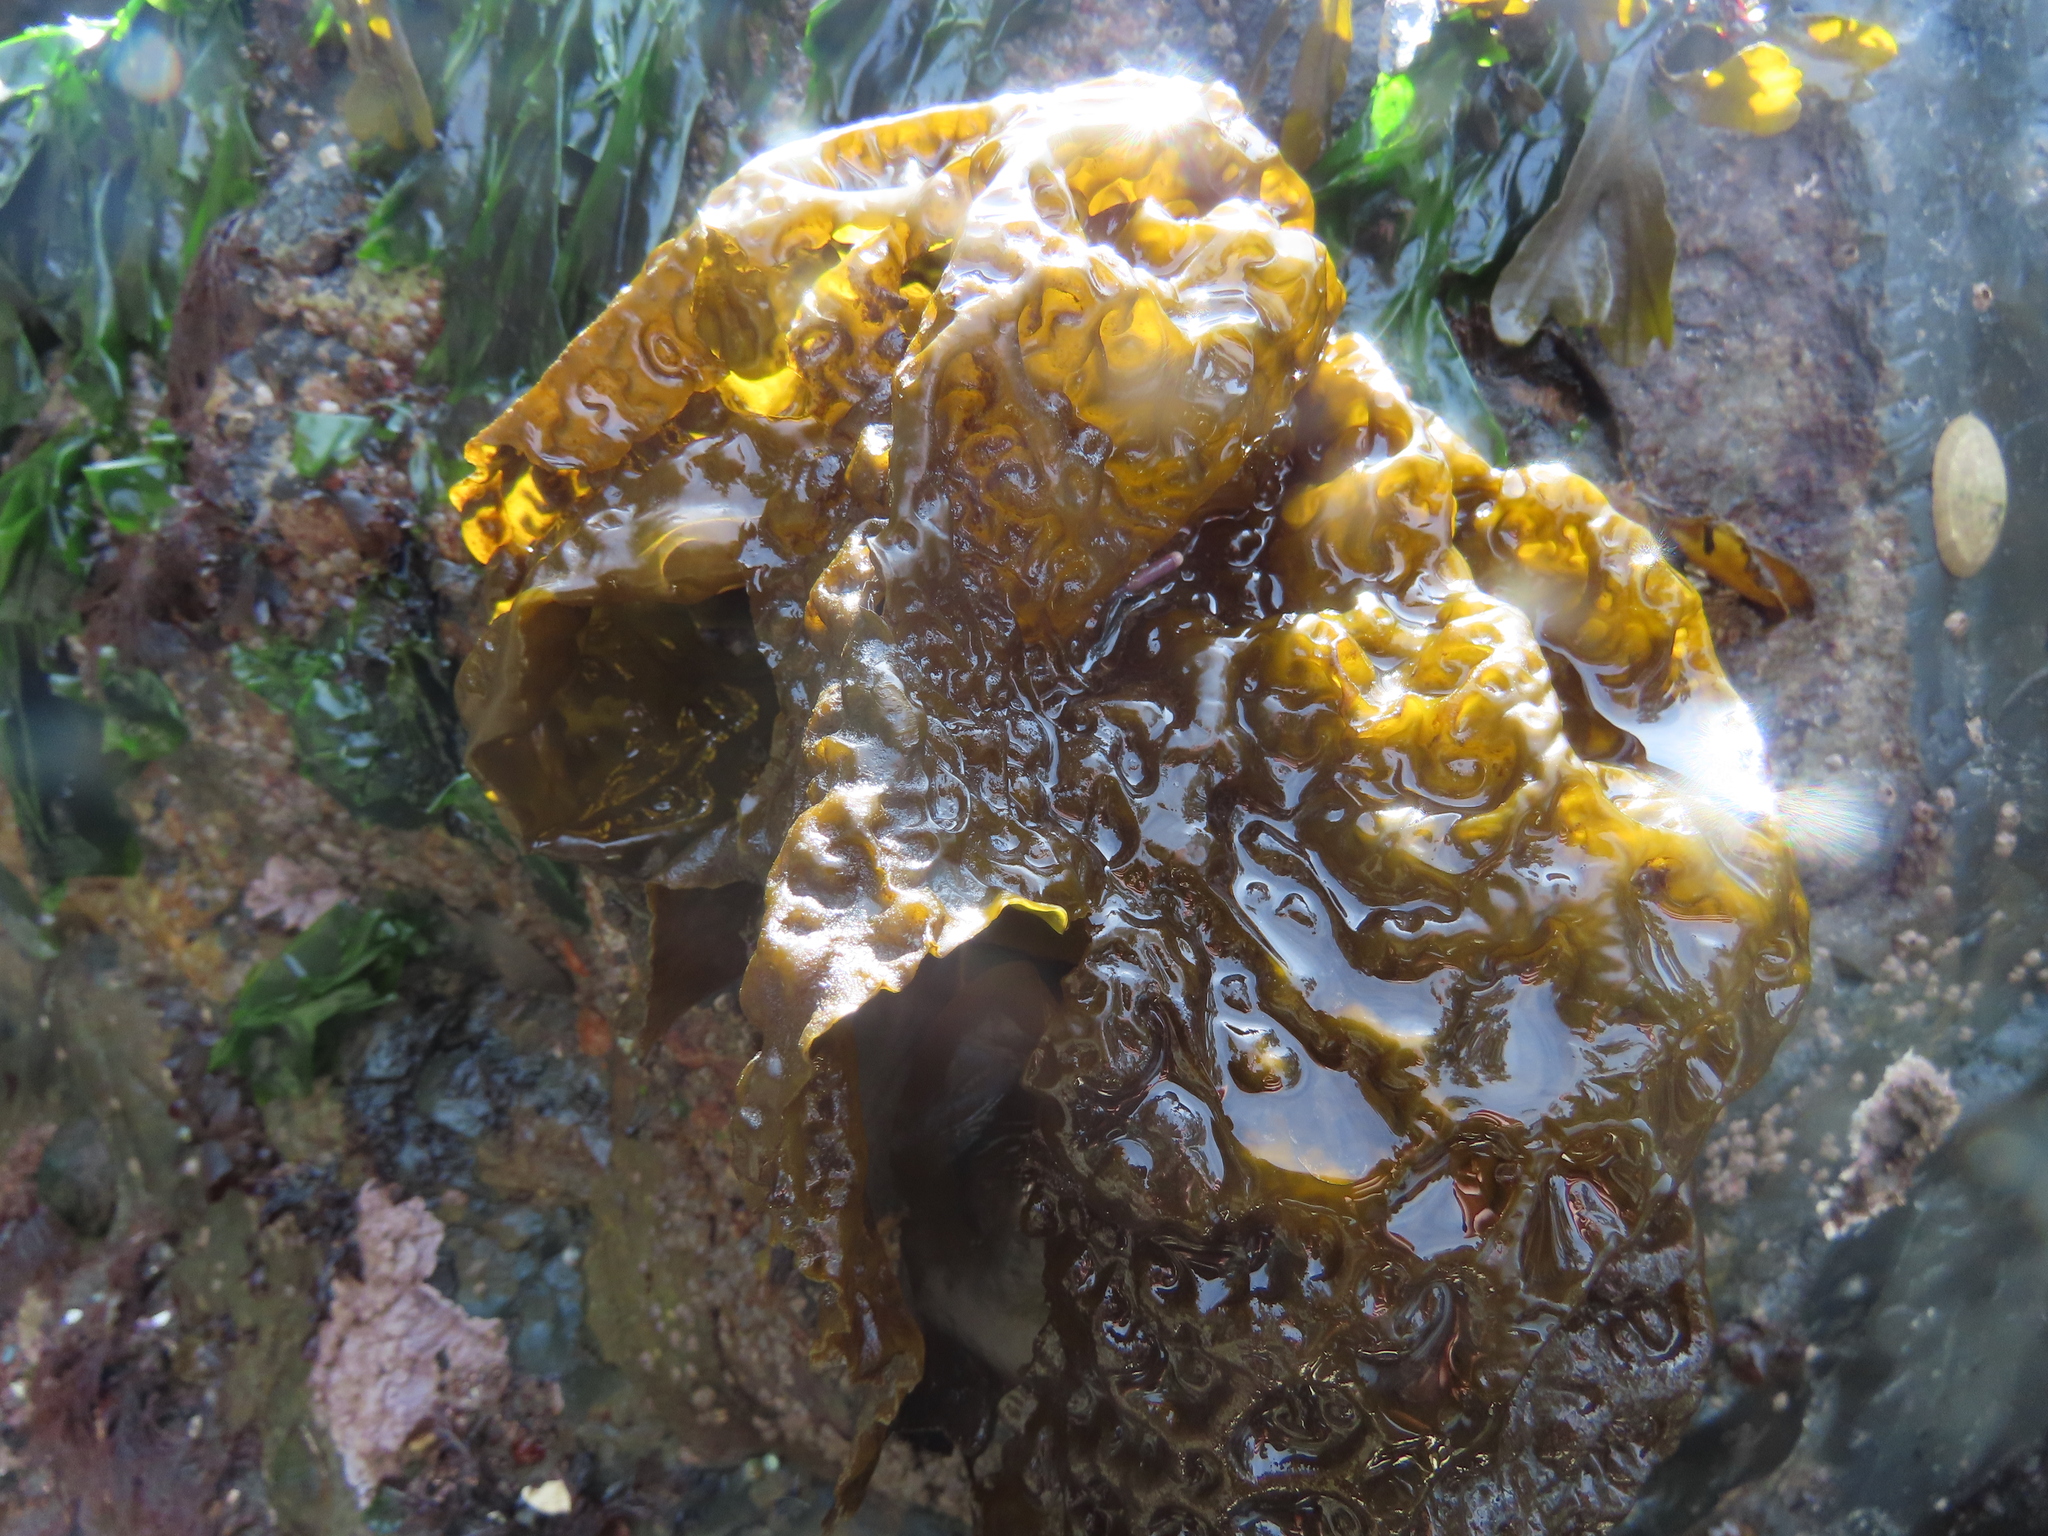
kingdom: Chromista
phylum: Ochrophyta
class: Phaeophyceae
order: Laminariales
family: Laminariaceae
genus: Hedophyllum
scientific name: Hedophyllum sessile
